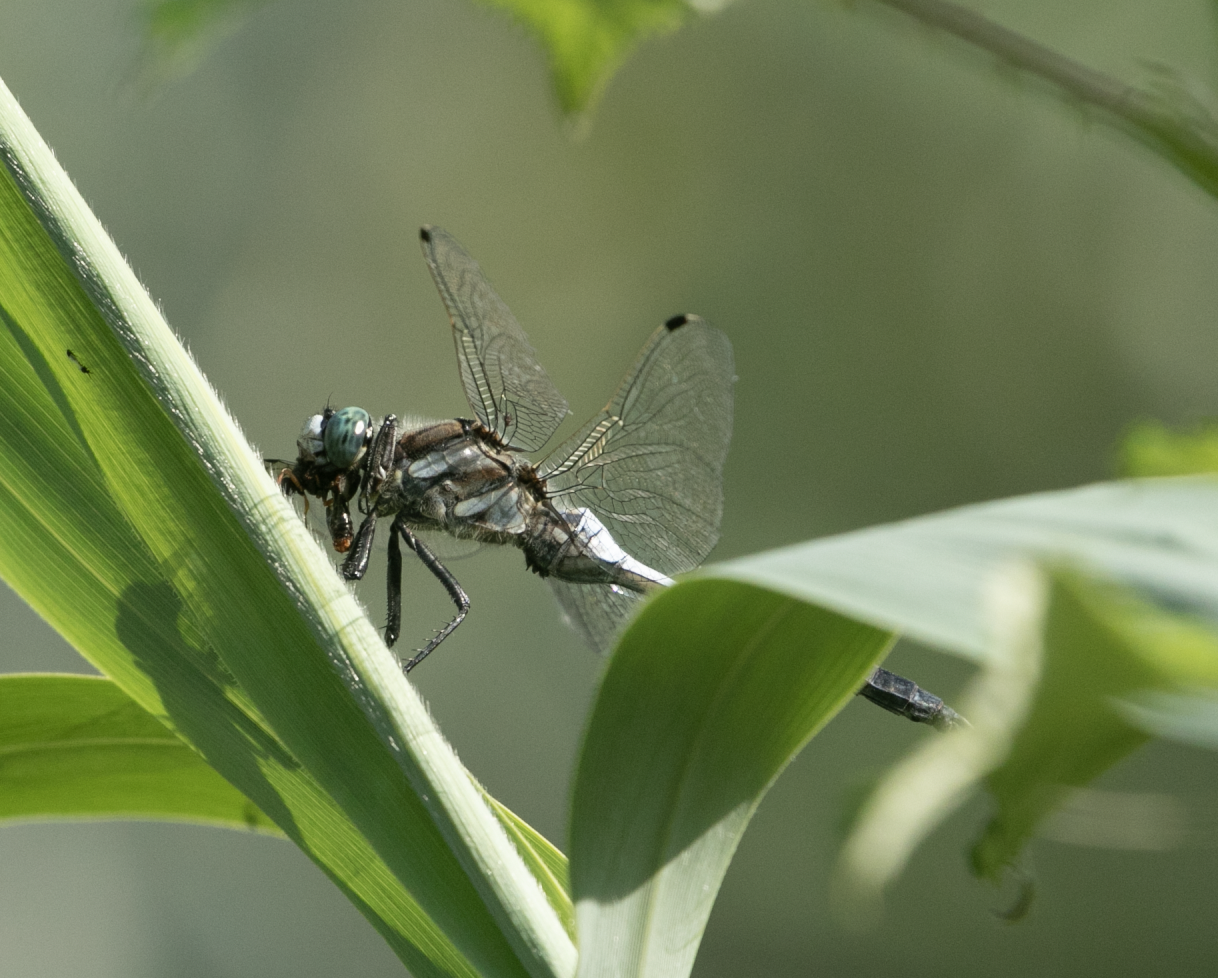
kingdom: Animalia
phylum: Arthropoda
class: Insecta
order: Odonata
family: Libellulidae
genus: Orthetrum
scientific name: Orthetrum albistylum
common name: White-tailed skimmer
